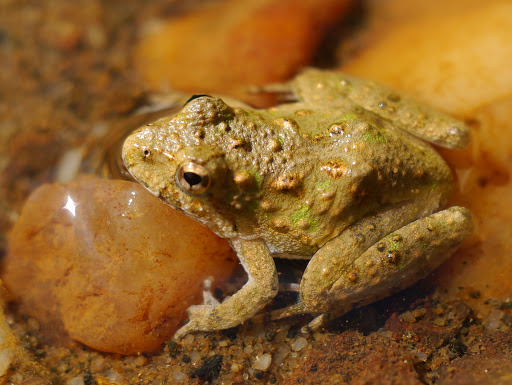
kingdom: Animalia
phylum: Chordata
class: Amphibia
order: Anura
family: Hylidae
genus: Acris
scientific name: Acris crepitans
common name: Northern cricket frog
